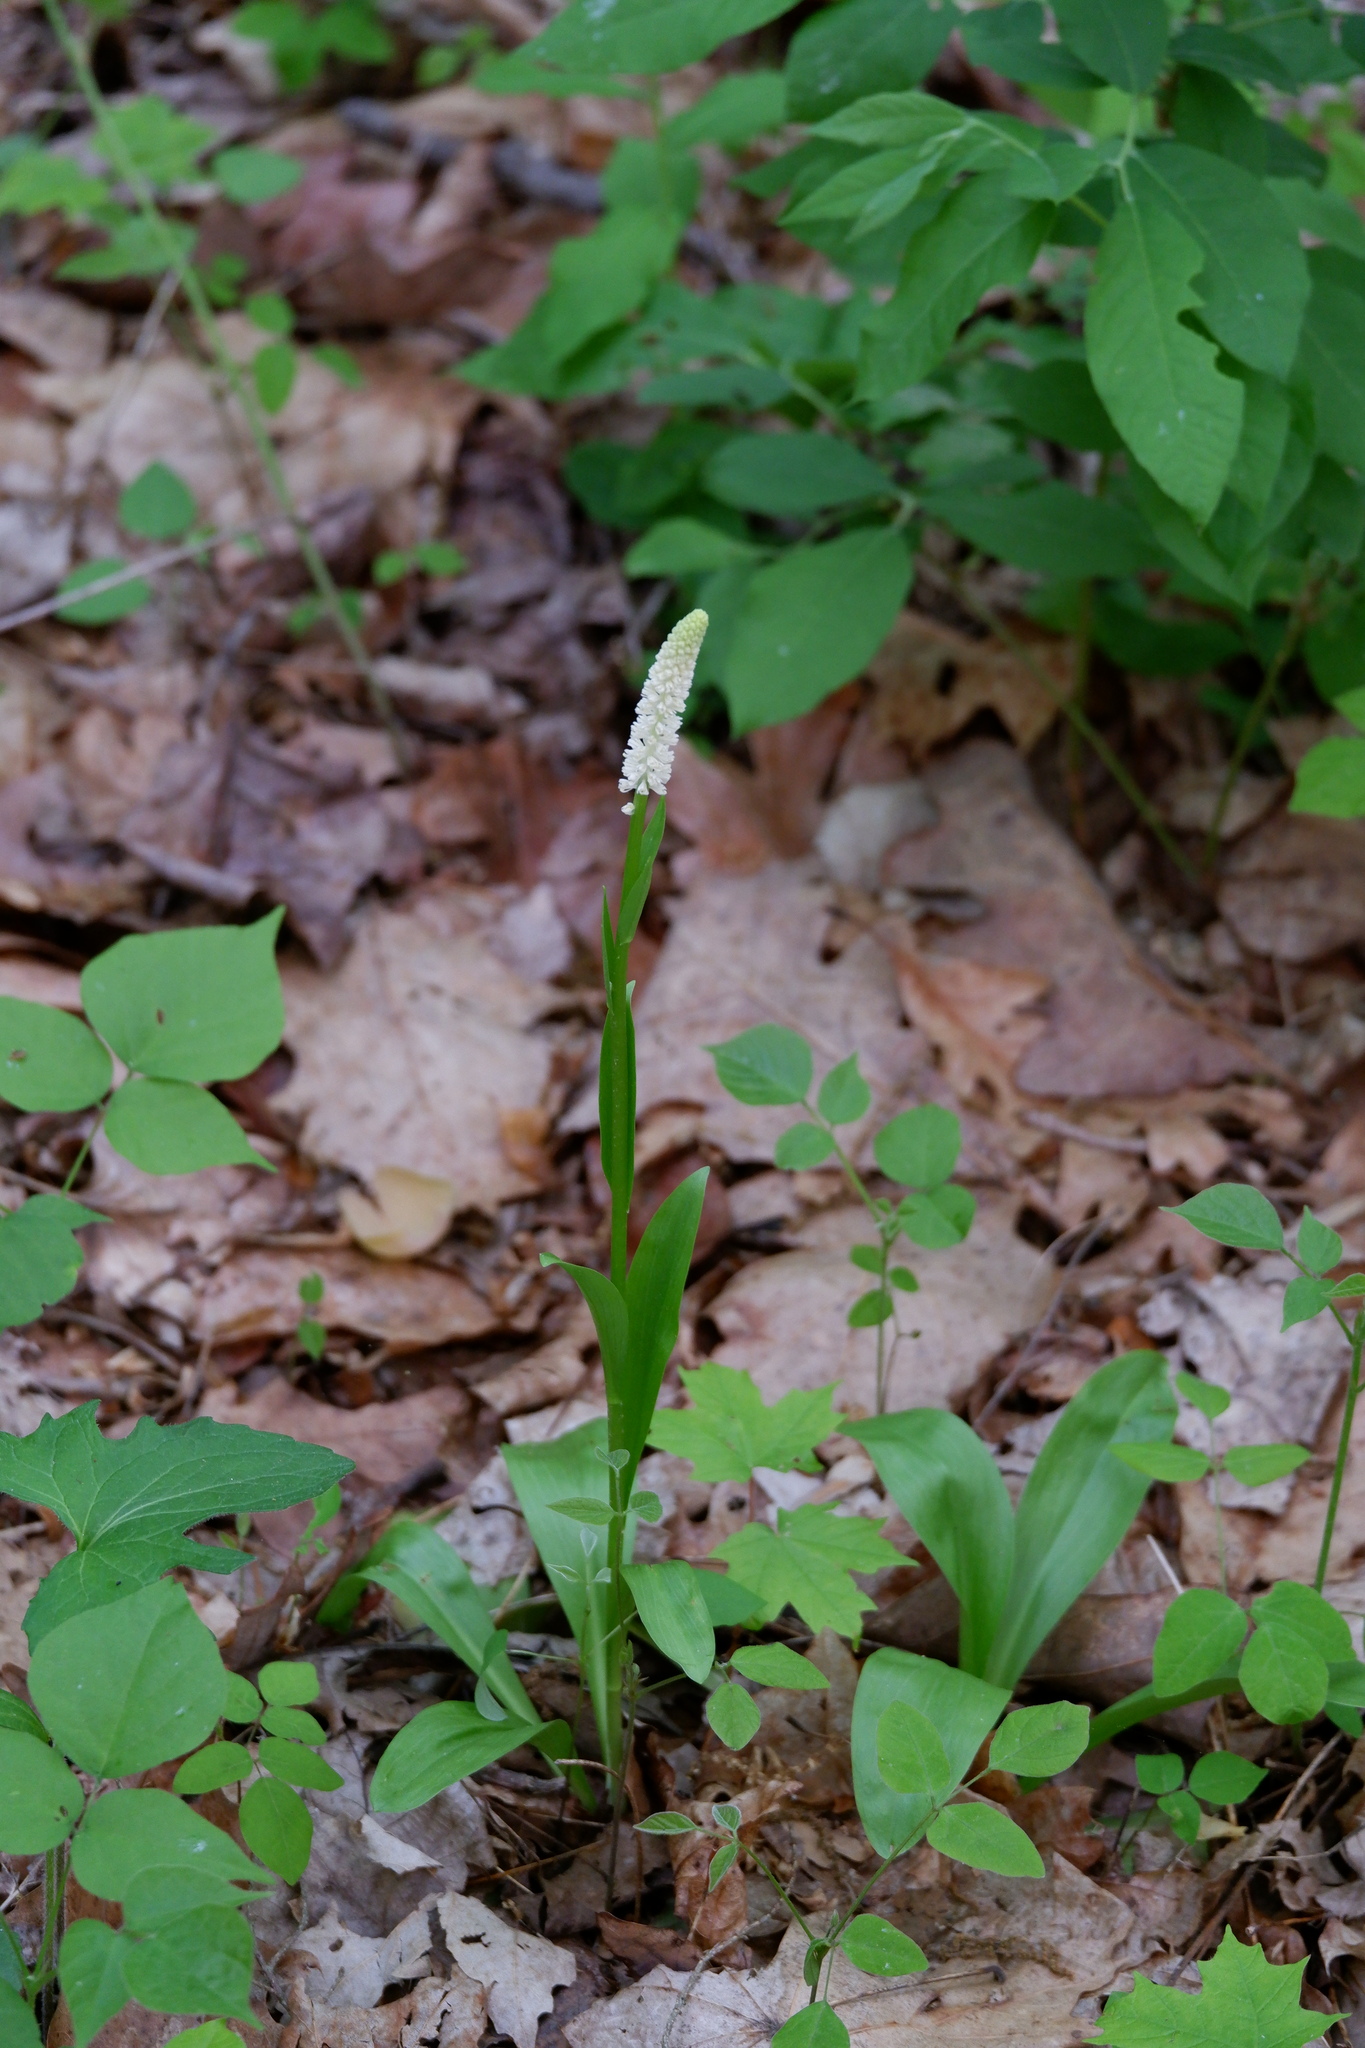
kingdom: Plantae
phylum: Tracheophyta
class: Liliopsida
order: Liliales
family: Melanthiaceae
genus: Chamaelirium
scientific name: Chamaelirium luteum
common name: Fairy-wand
